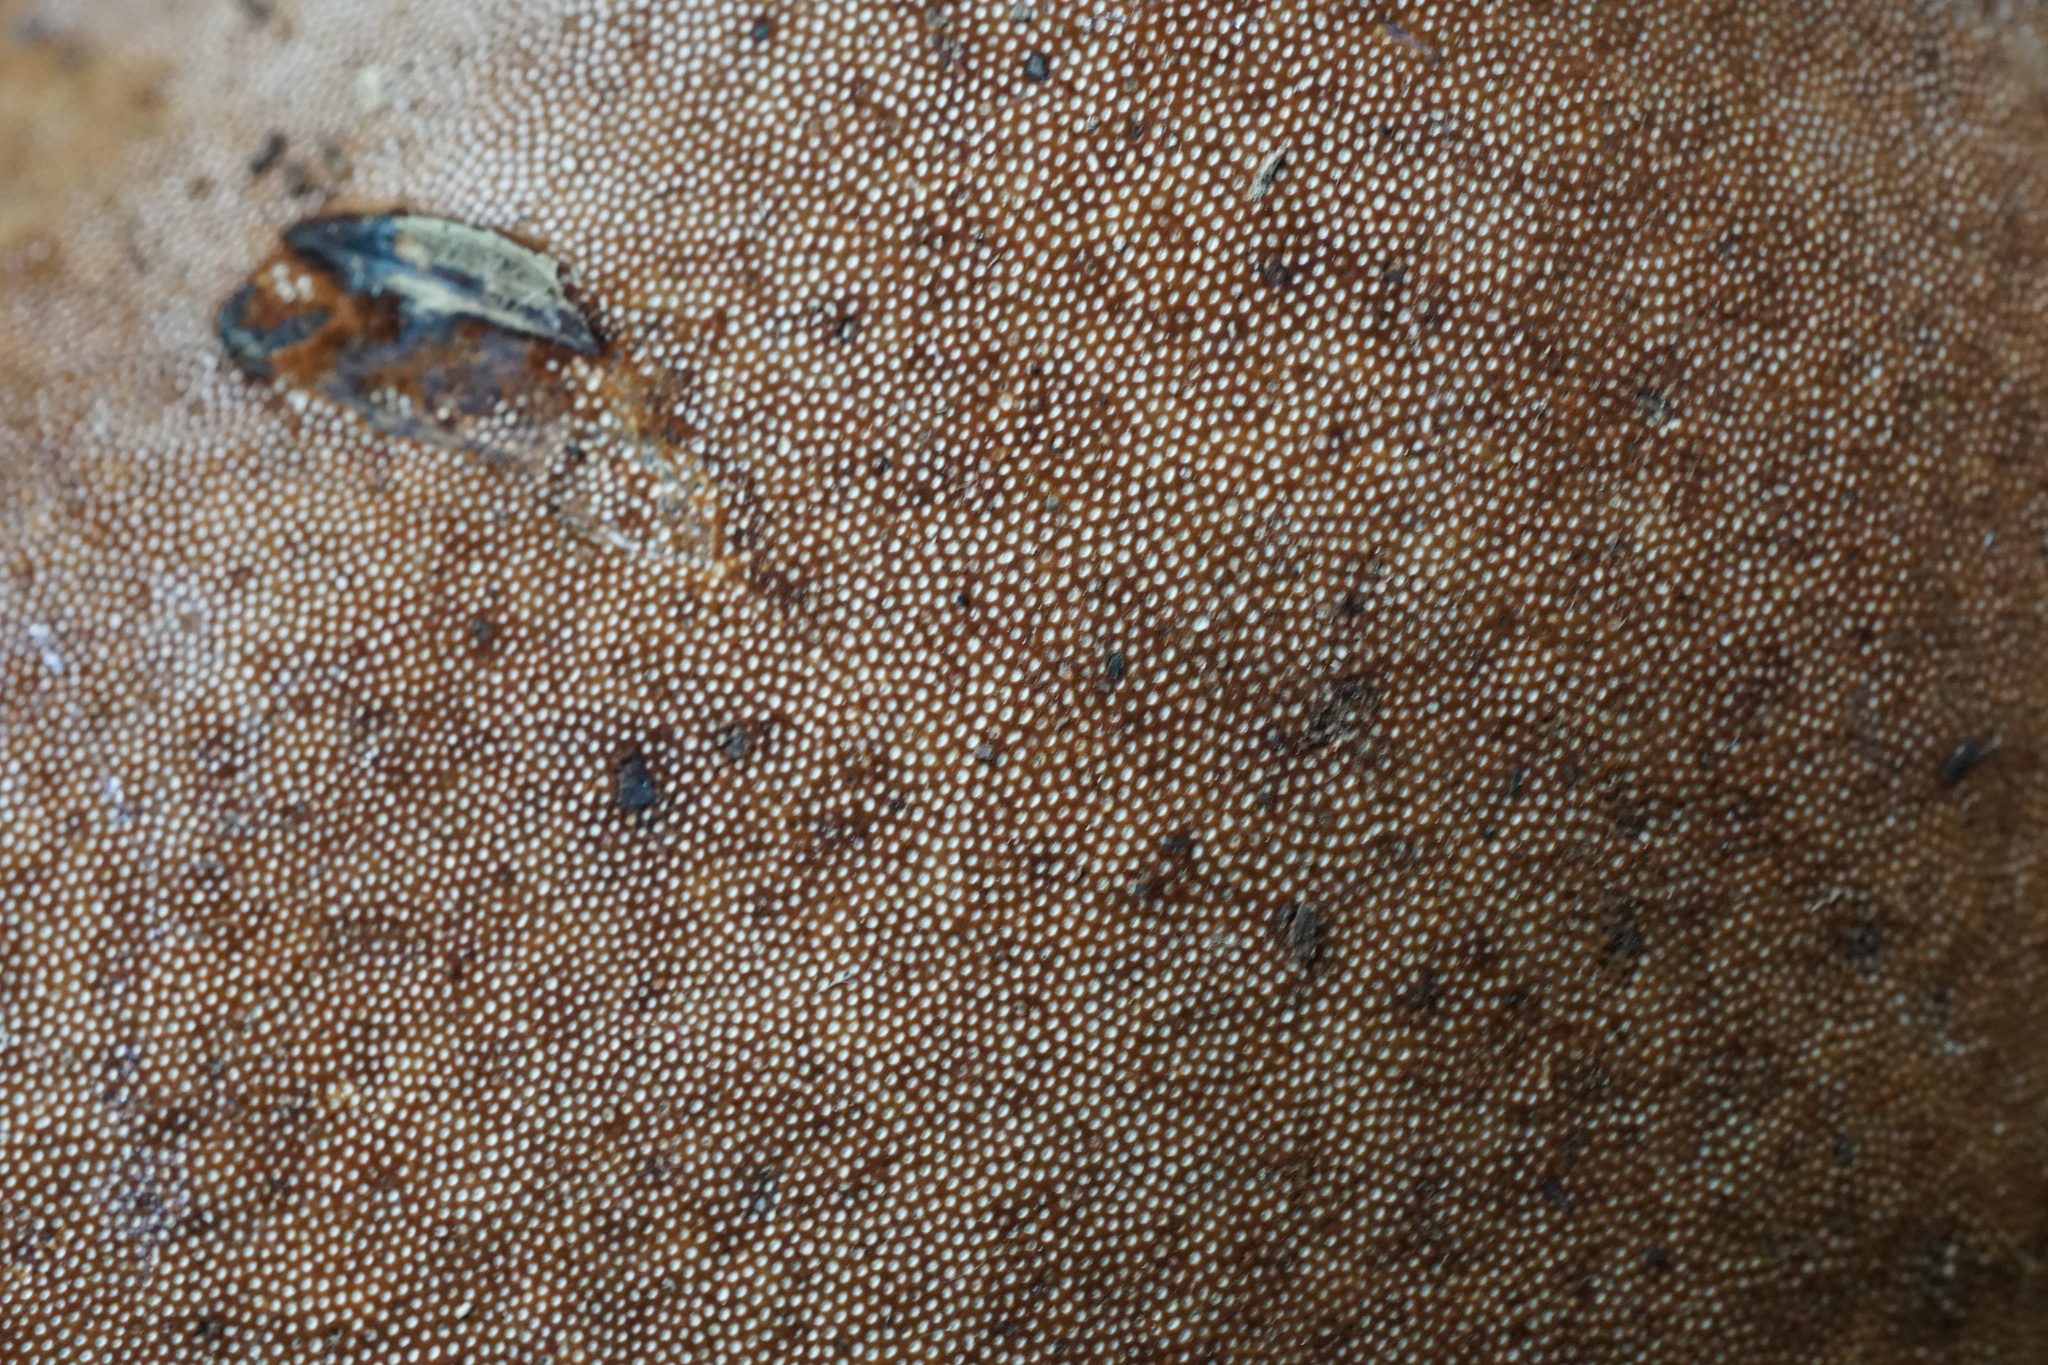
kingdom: Fungi
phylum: Basidiomycota
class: Agaricomycetes
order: Polyporales
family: Polyporaceae
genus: Fomes
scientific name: Fomes fomentarius
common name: Hoof fungus
